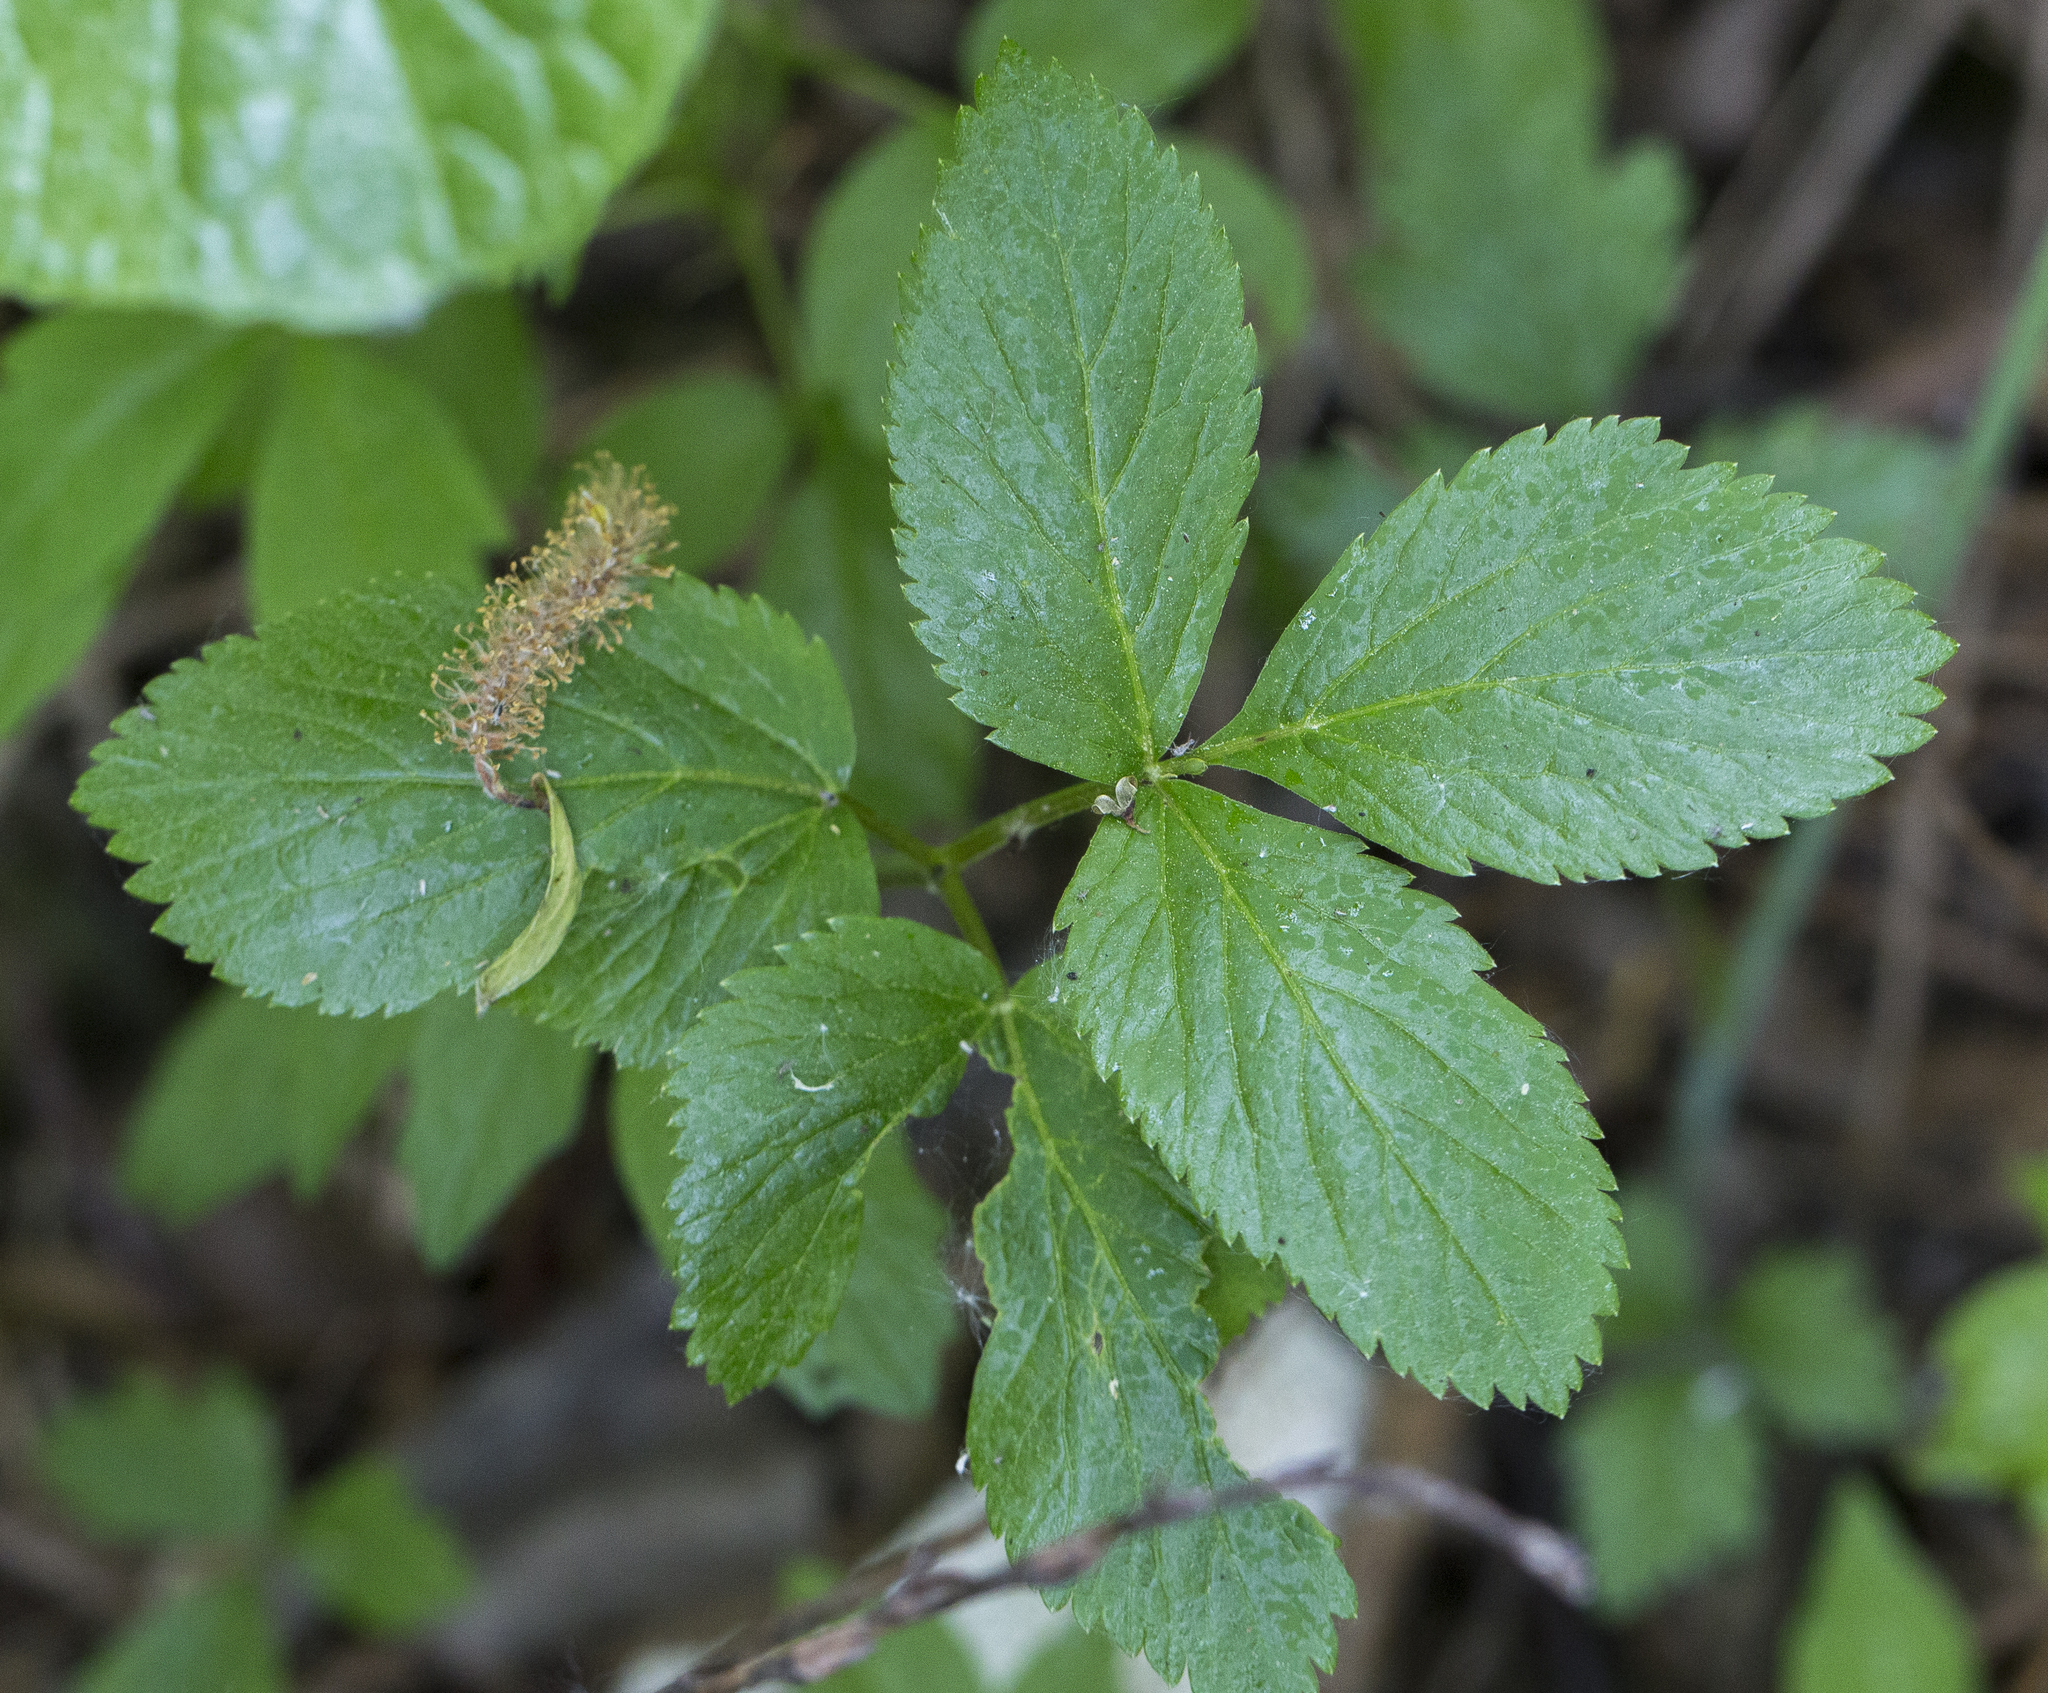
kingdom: Plantae
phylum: Tracheophyta
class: Magnoliopsida
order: Apiales
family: Apiaceae
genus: Aegopodium
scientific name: Aegopodium podagraria
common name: Ground-elder
